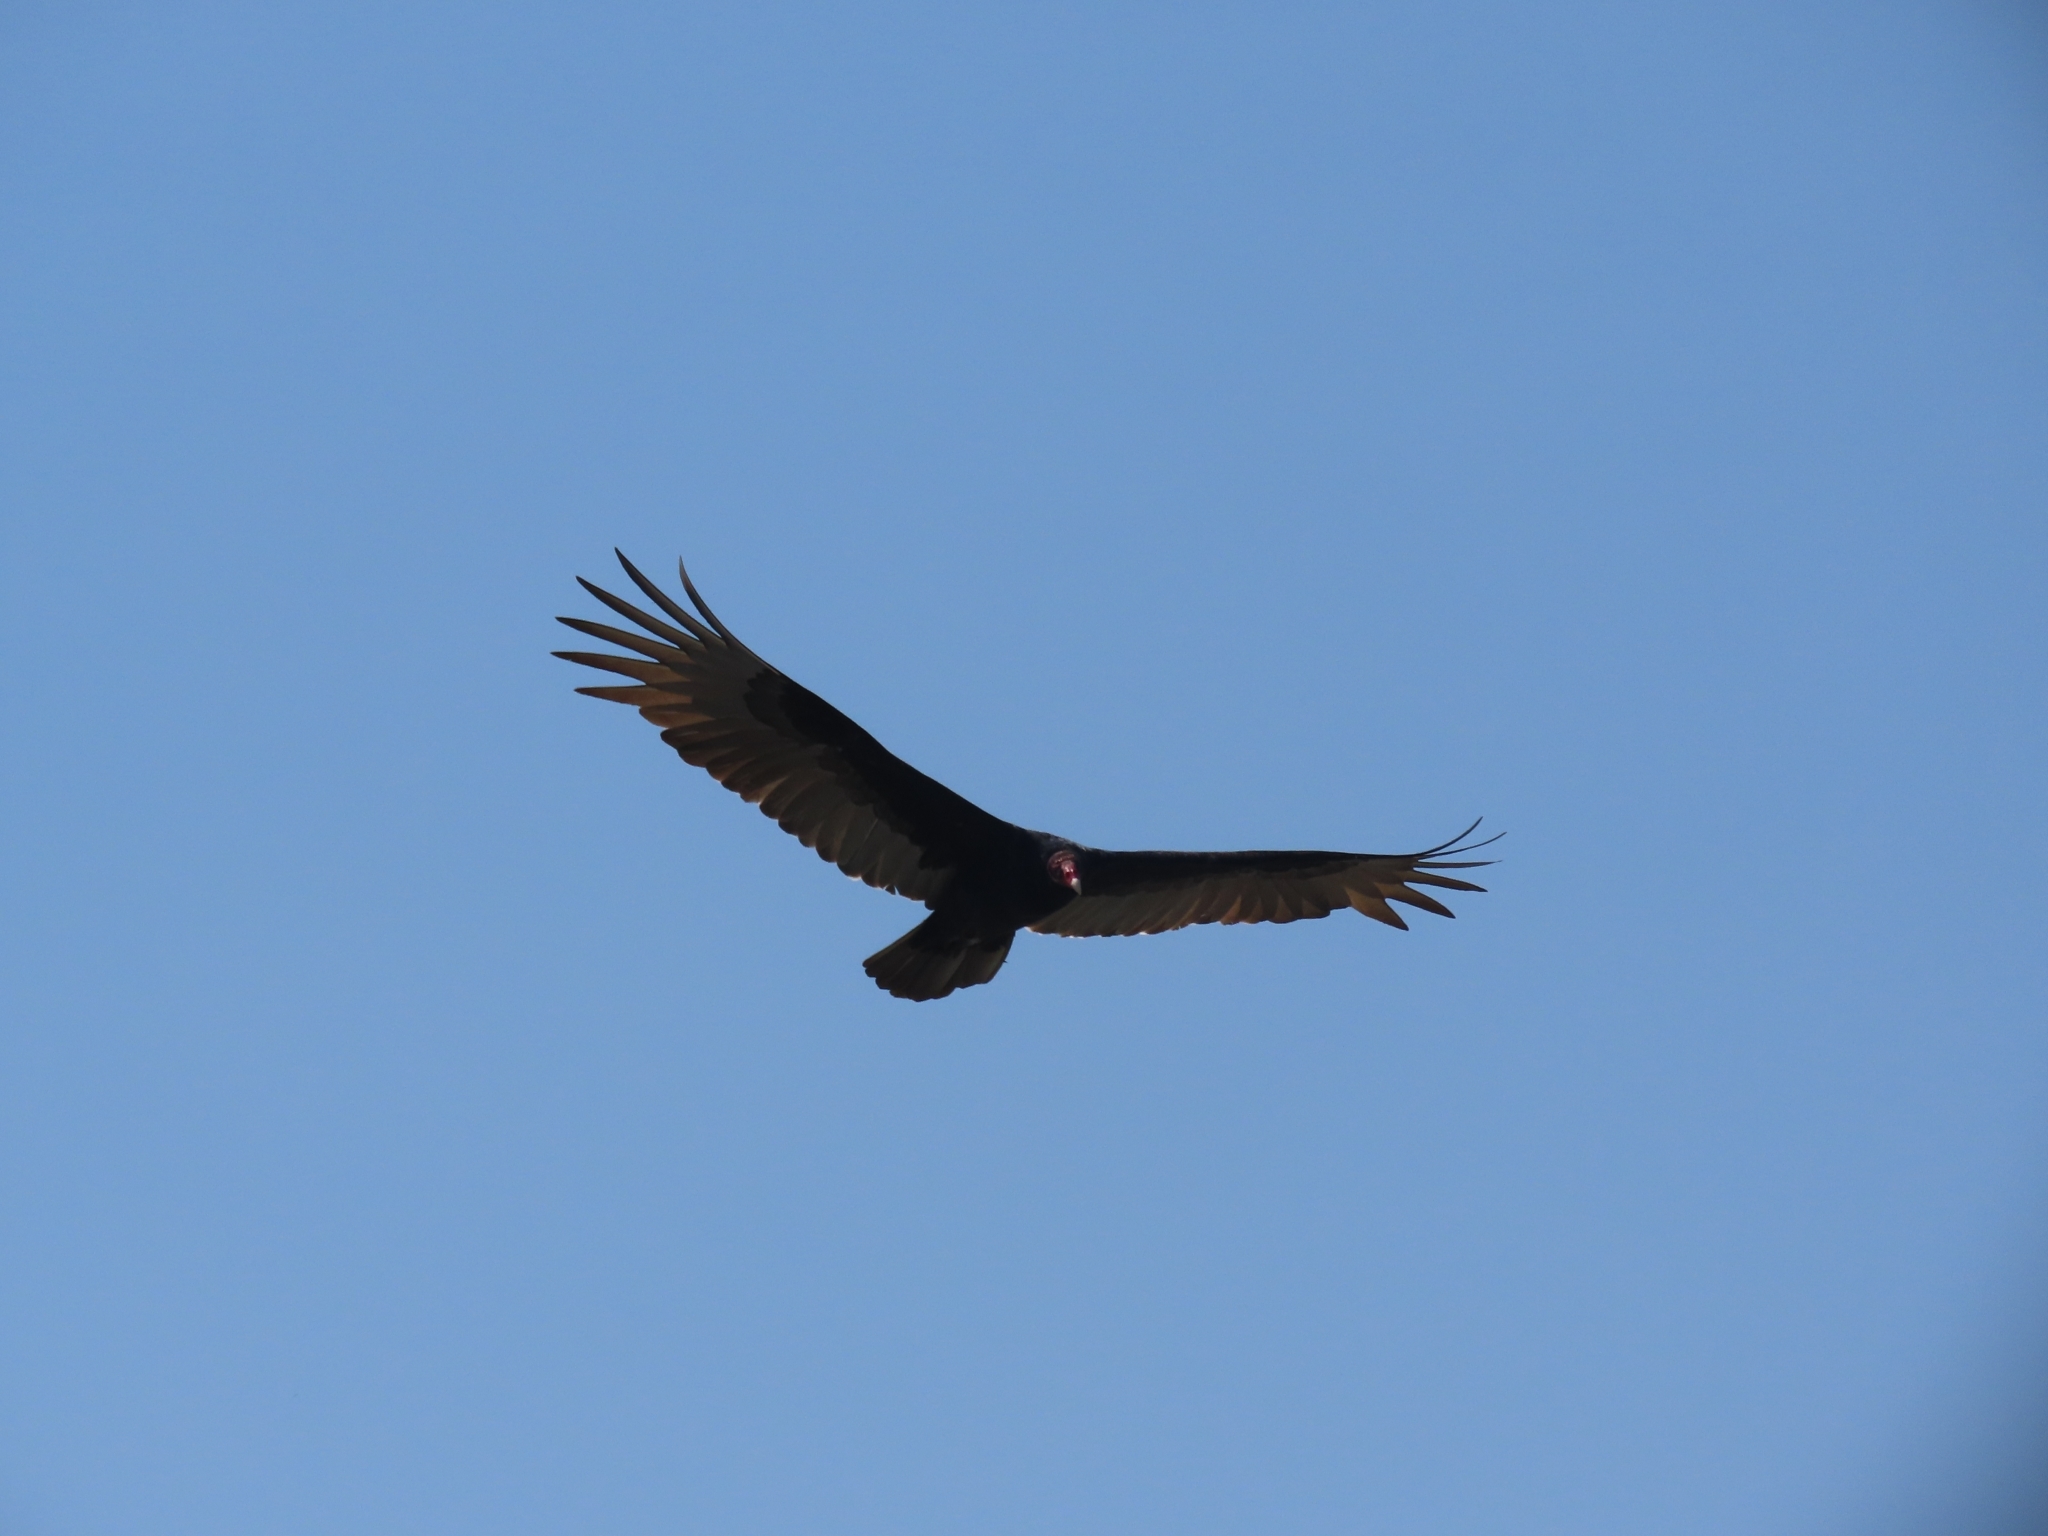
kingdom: Animalia
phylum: Chordata
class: Aves
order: Accipitriformes
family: Cathartidae
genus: Cathartes
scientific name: Cathartes aura
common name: Turkey vulture
